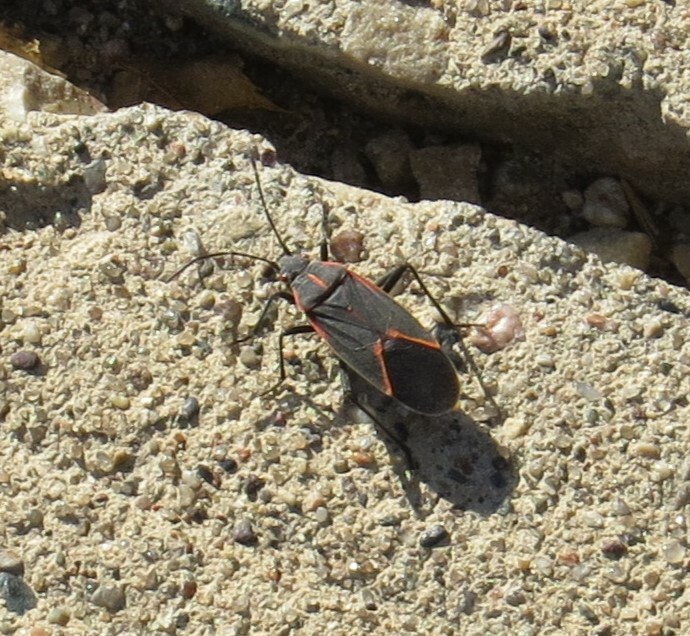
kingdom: Animalia
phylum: Arthropoda
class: Insecta
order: Hemiptera
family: Rhopalidae
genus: Boisea
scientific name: Boisea trivittata
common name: Boxelder bug
